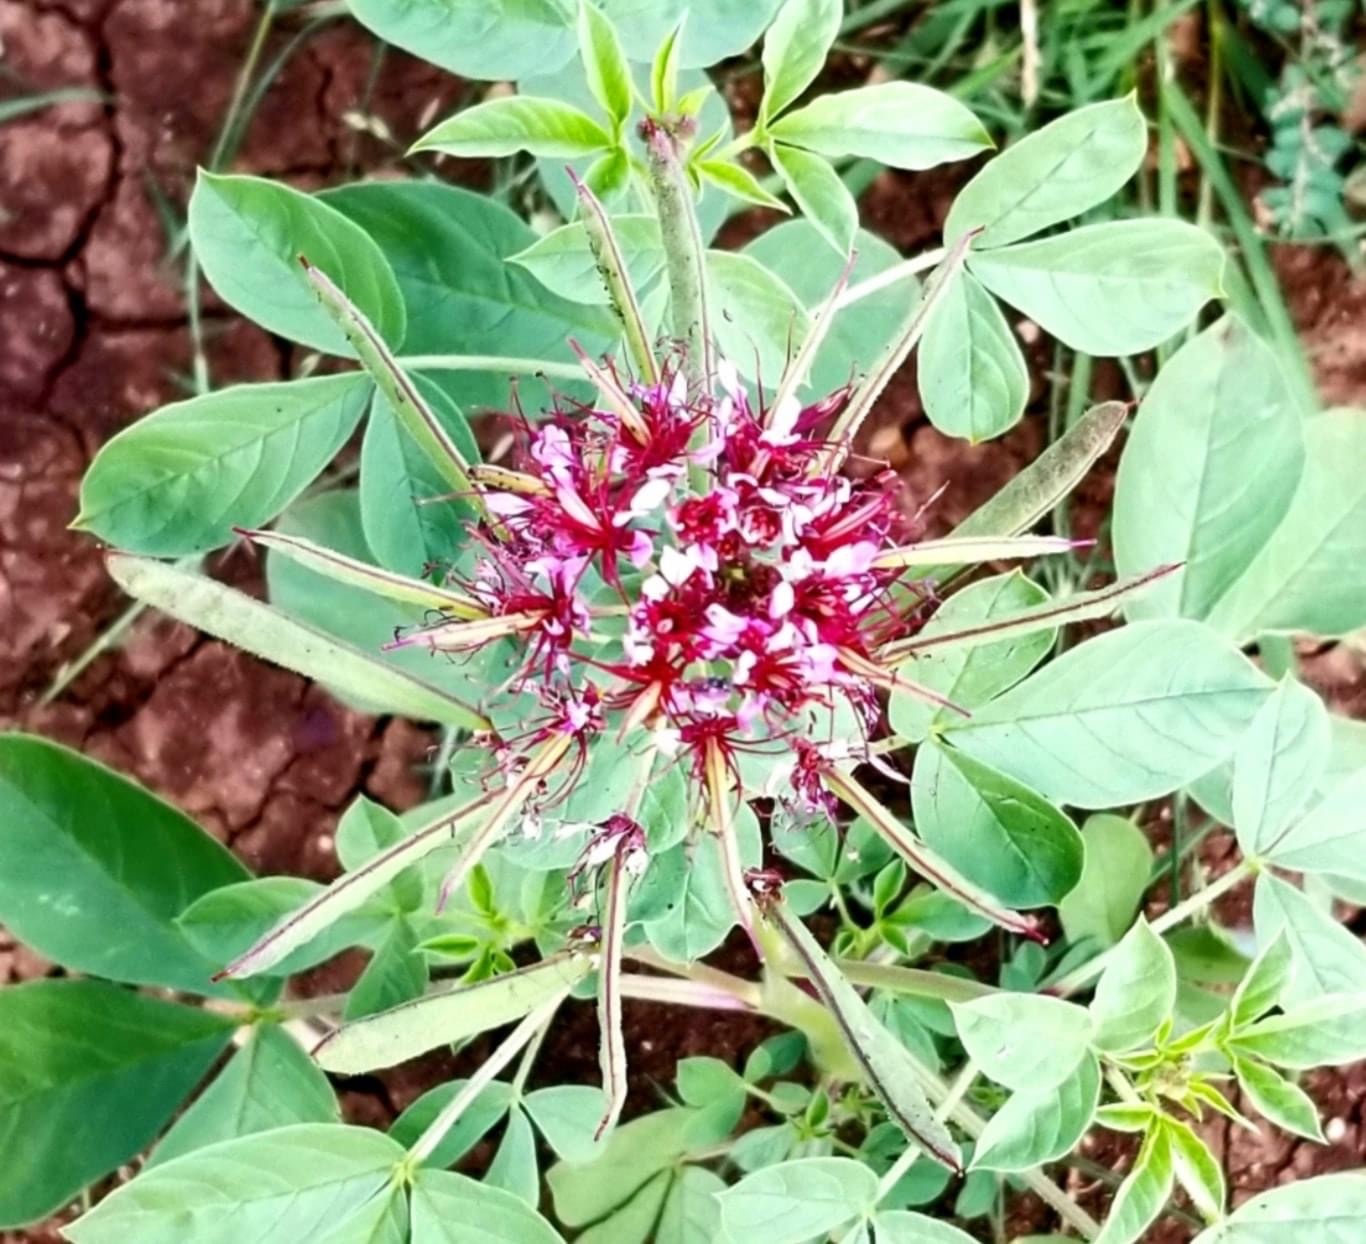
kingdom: Plantae
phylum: Tracheophyta
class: Magnoliopsida
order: Brassicales
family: Cleomaceae
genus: Polanisia
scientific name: Polanisia dodecandra
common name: Clammyweed
